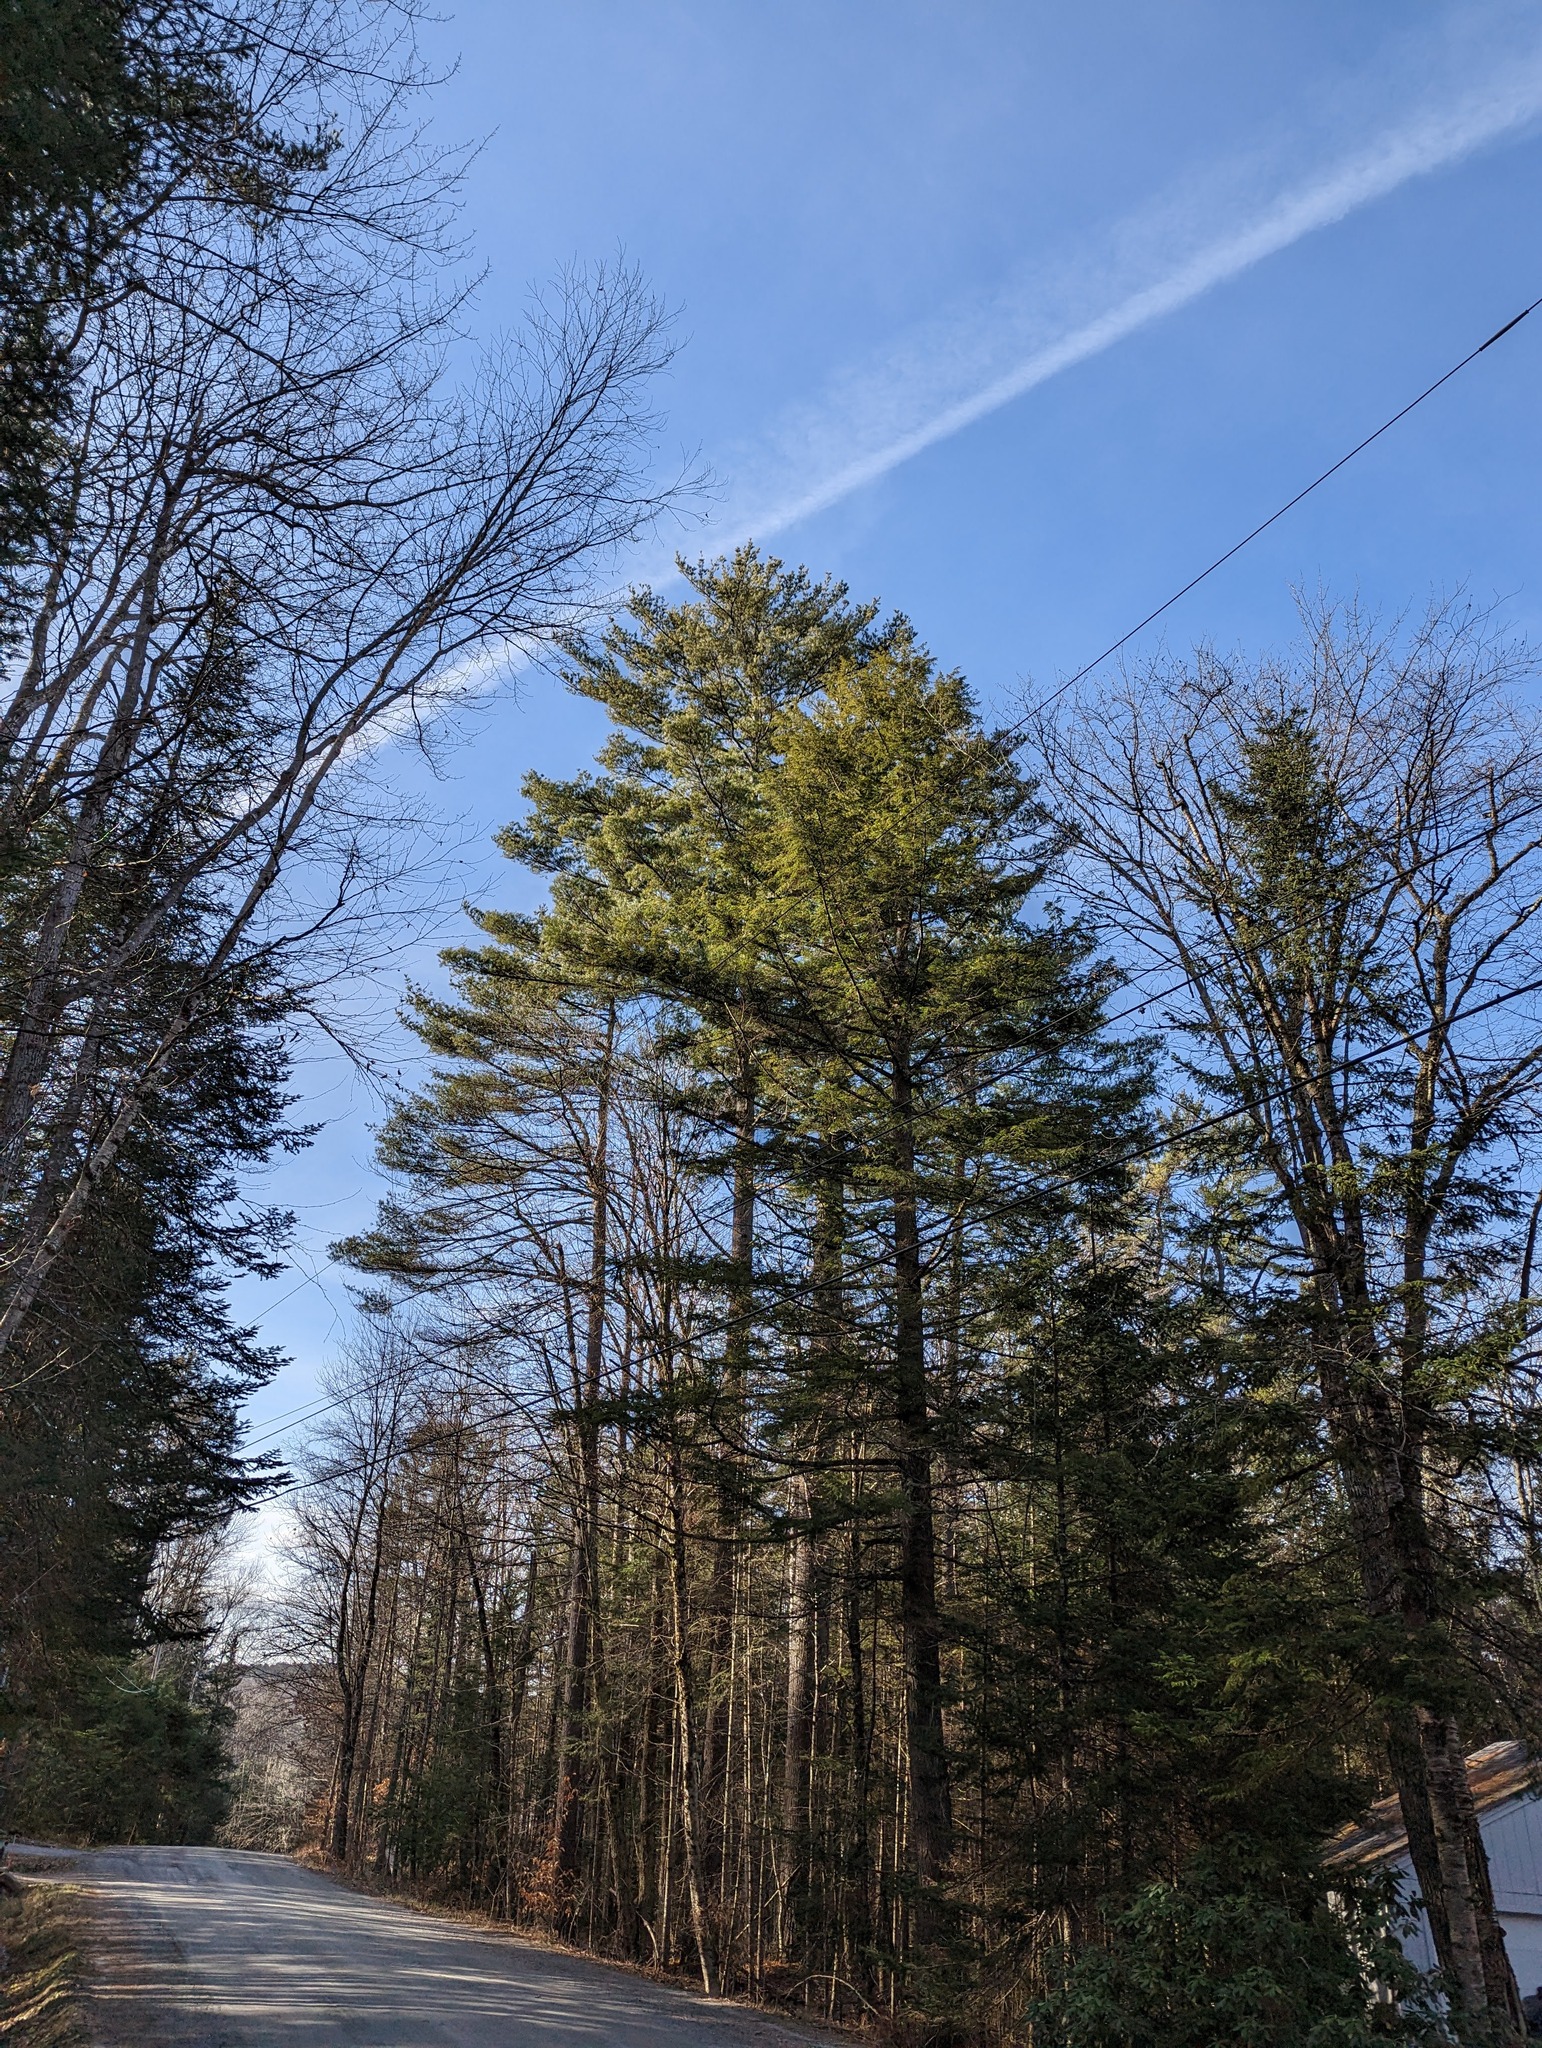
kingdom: Plantae
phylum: Tracheophyta
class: Pinopsida
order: Pinales
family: Pinaceae
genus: Pinus
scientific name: Pinus strobus
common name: Weymouth pine
